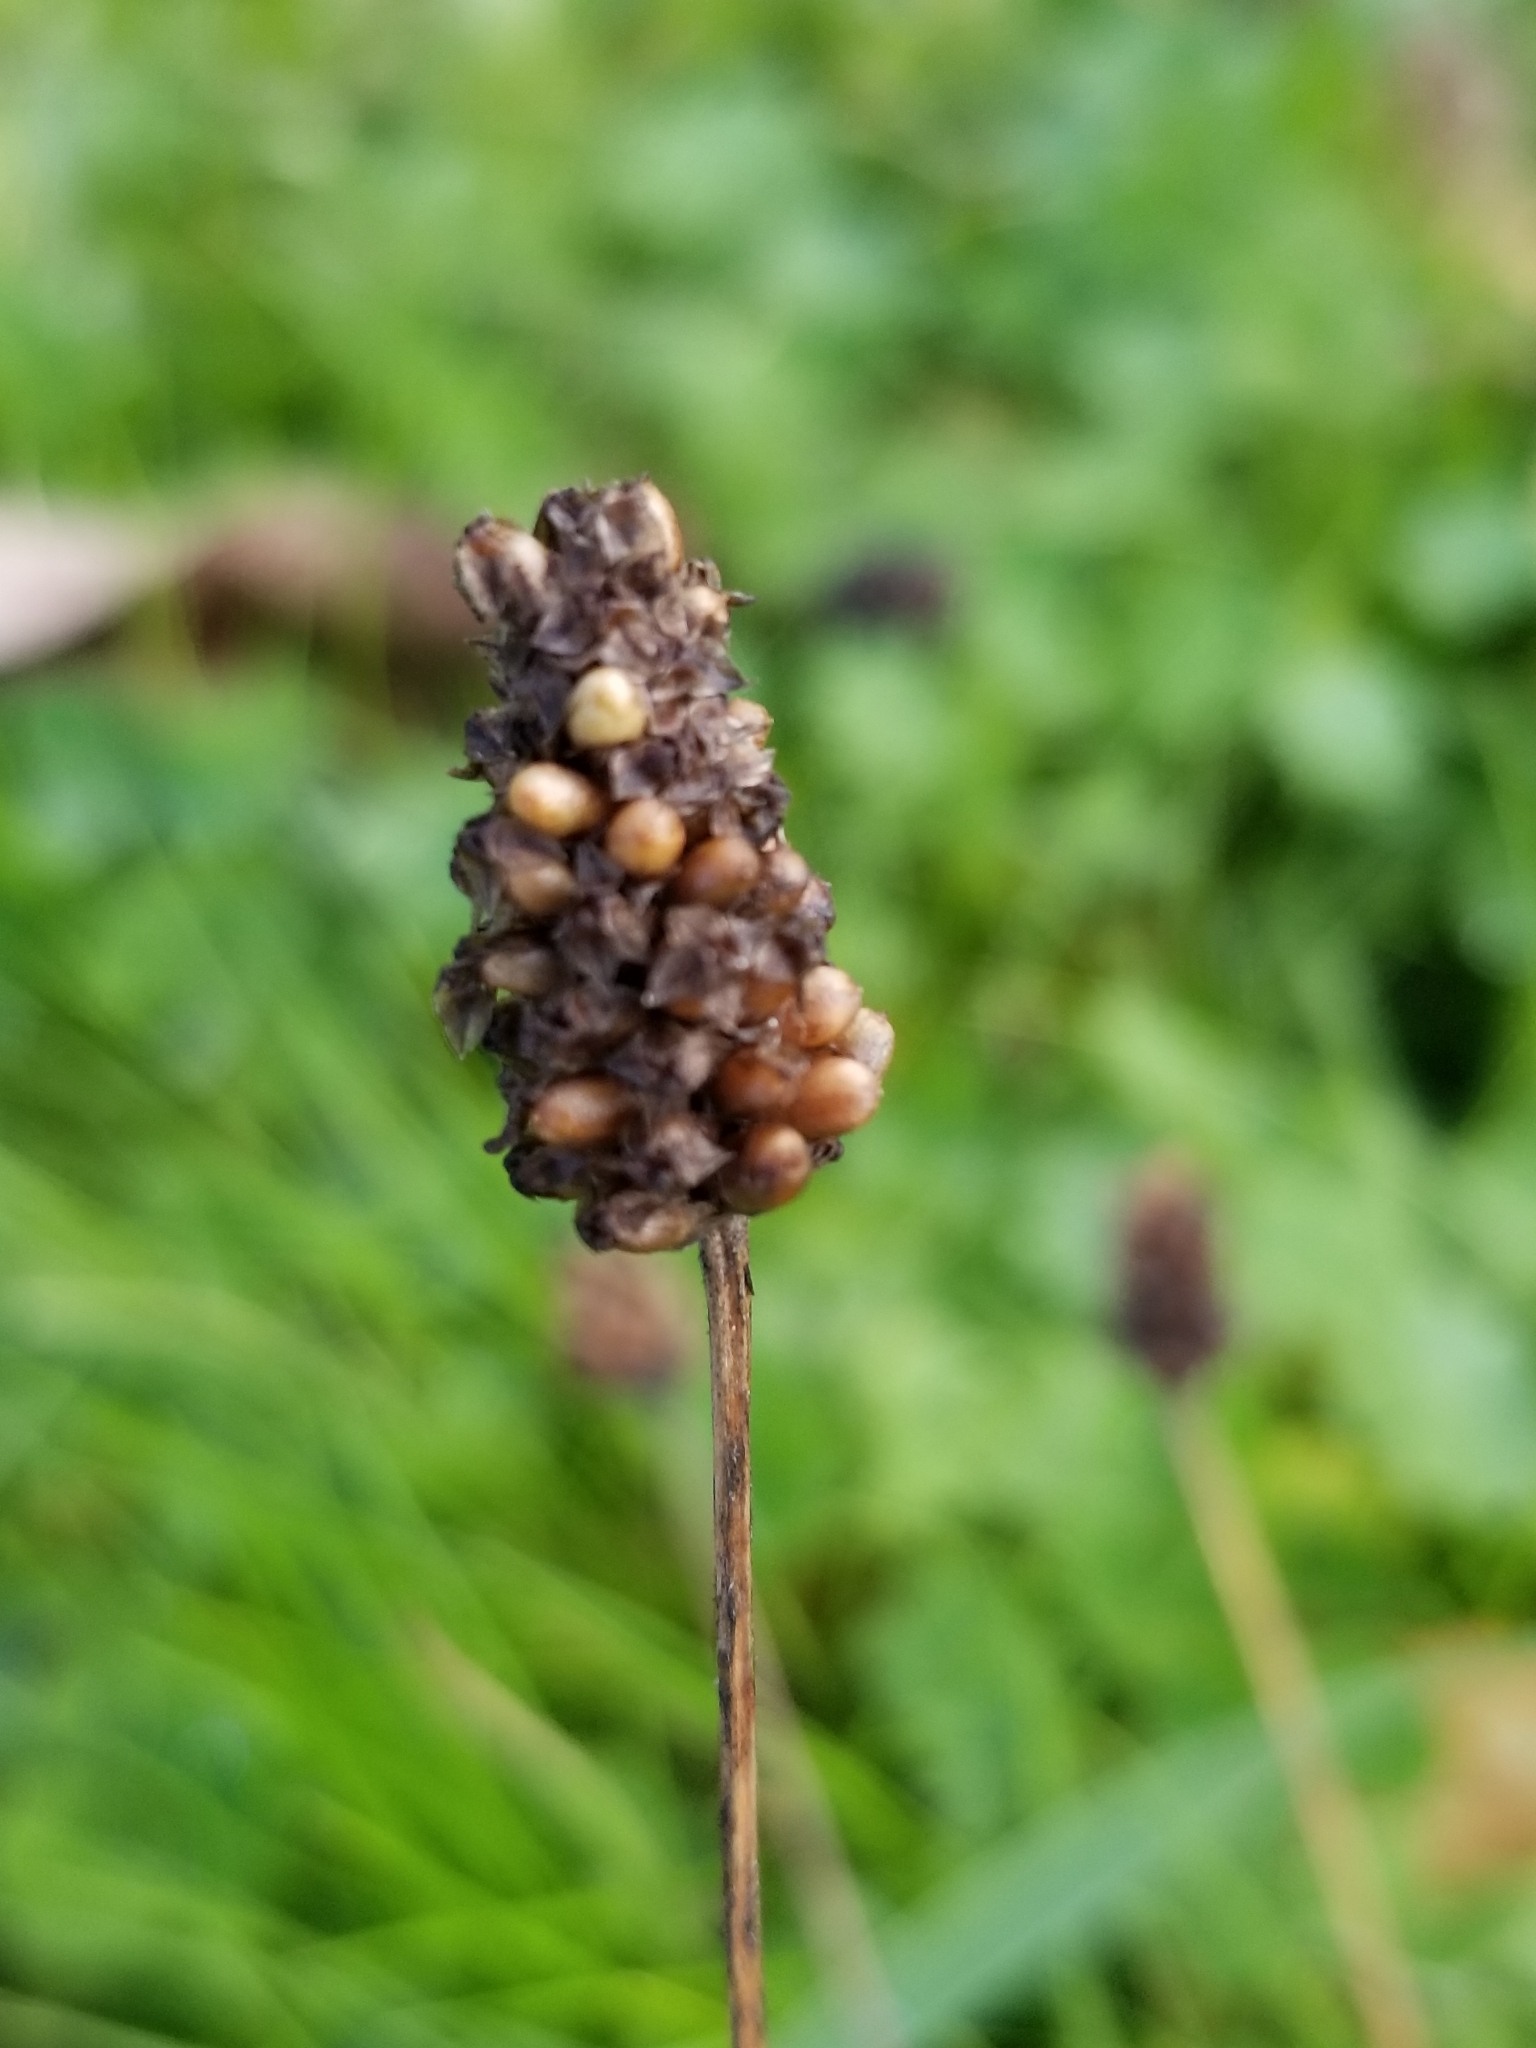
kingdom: Plantae
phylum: Tracheophyta
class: Magnoliopsida
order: Lamiales
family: Plantaginaceae
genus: Plantago
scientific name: Plantago lanceolata
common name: Ribwort plantain
